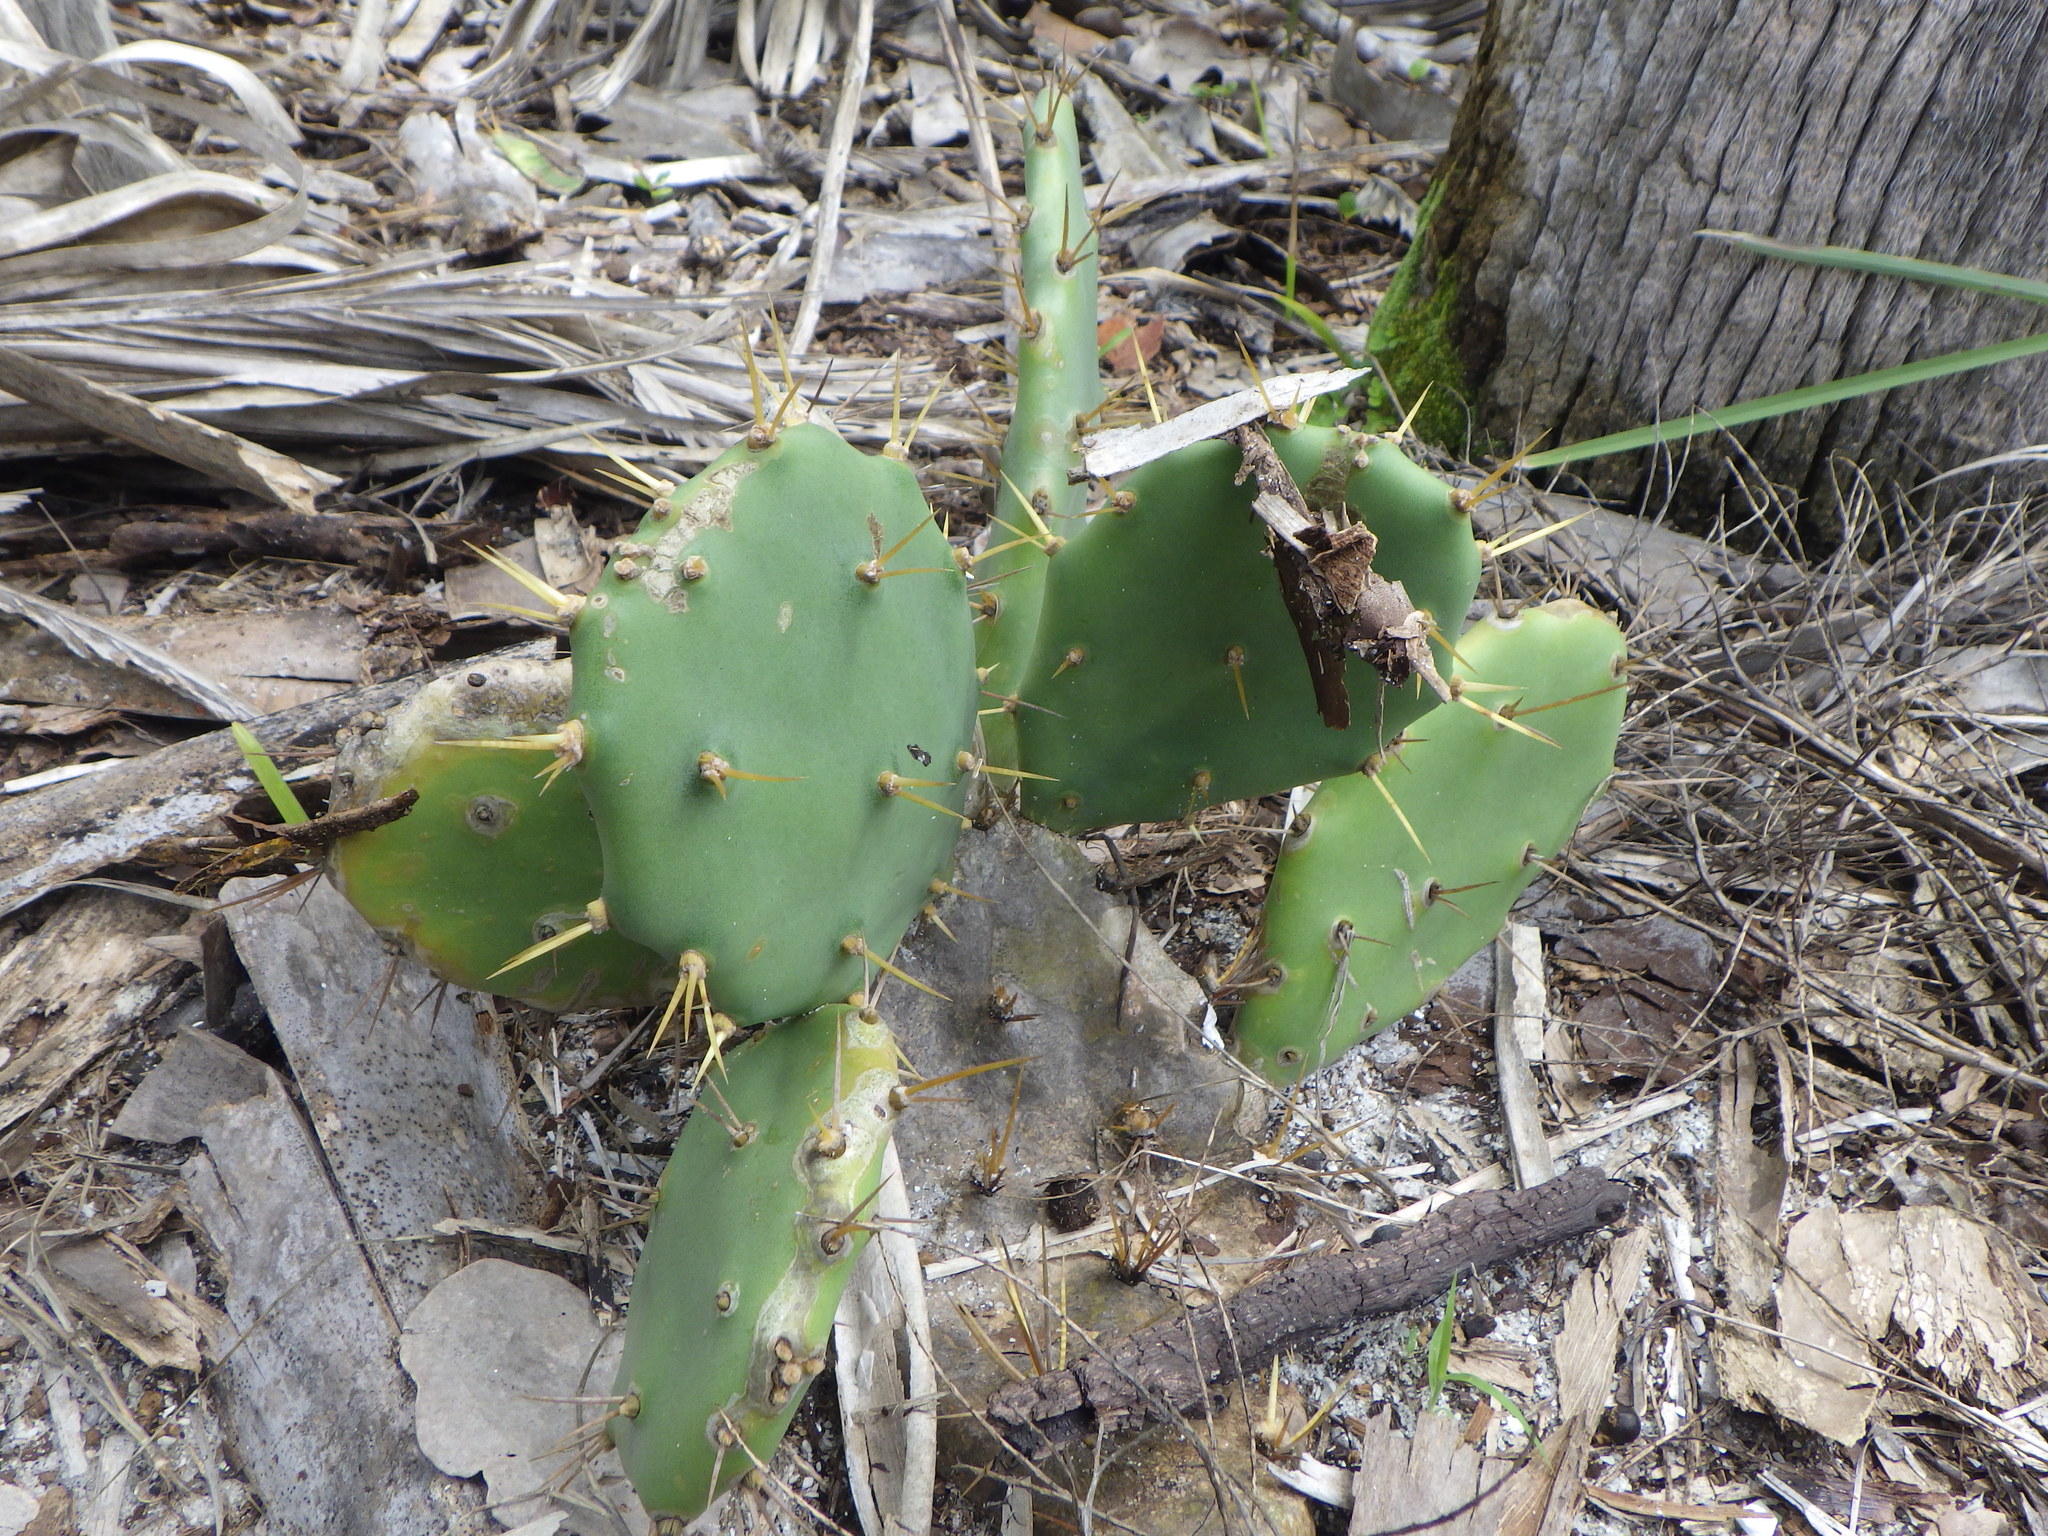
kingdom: Plantae
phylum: Tracheophyta
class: Magnoliopsida
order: Caryophyllales
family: Cactaceae
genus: Opuntia
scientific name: Opuntia stricta
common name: Erect pricklypear
